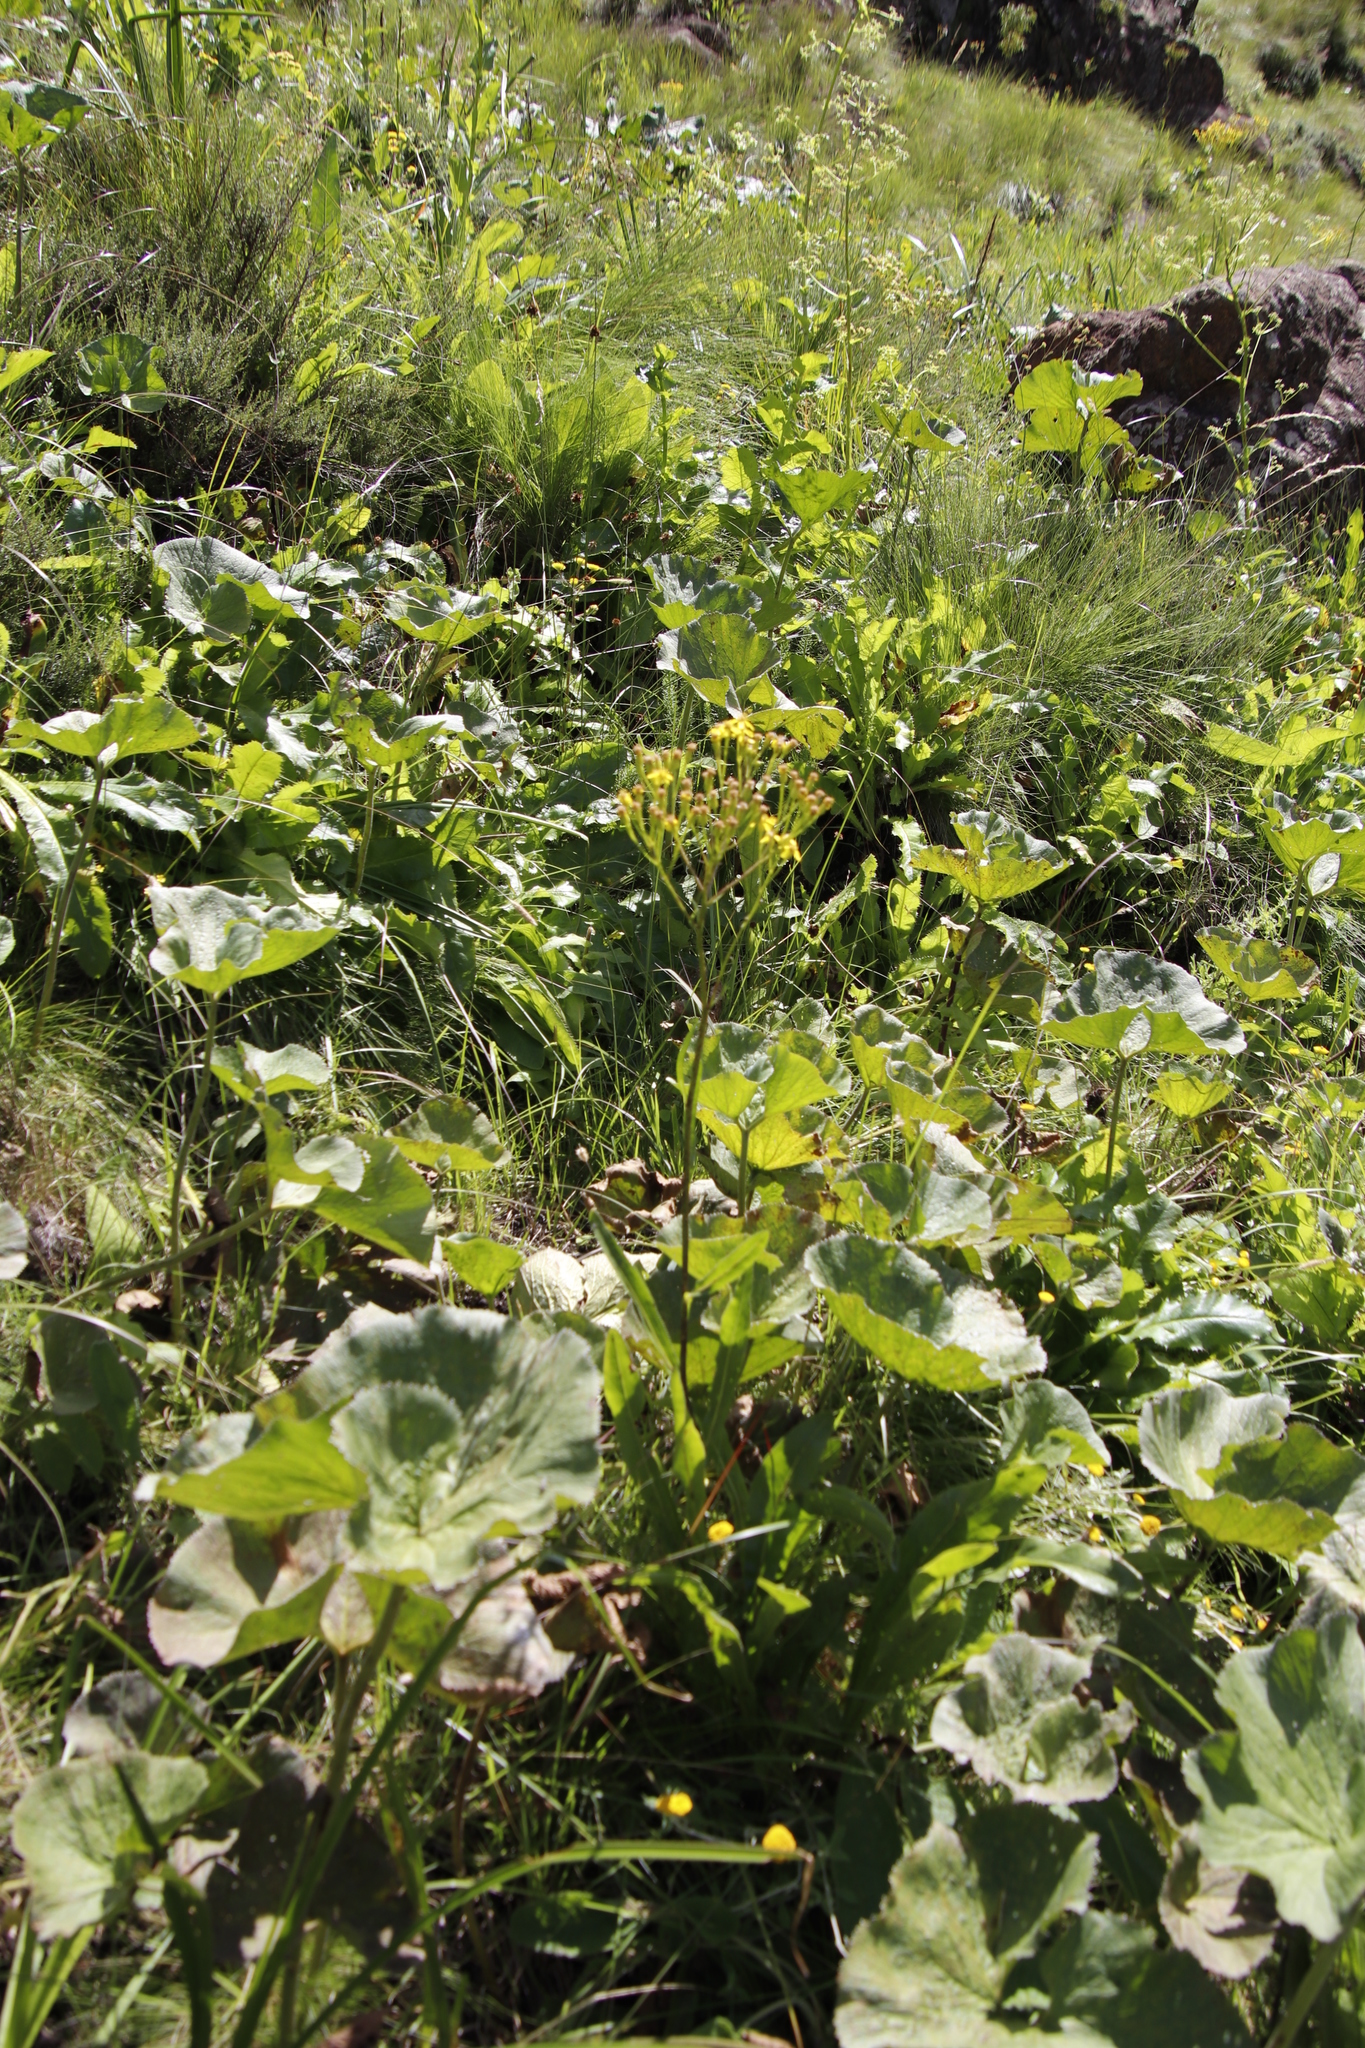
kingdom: Plantae
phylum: Tracheophyta
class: Magnoliopsida
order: Gunnerales
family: Gunneraceae
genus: Gunnera
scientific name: Gunnera perpensa
